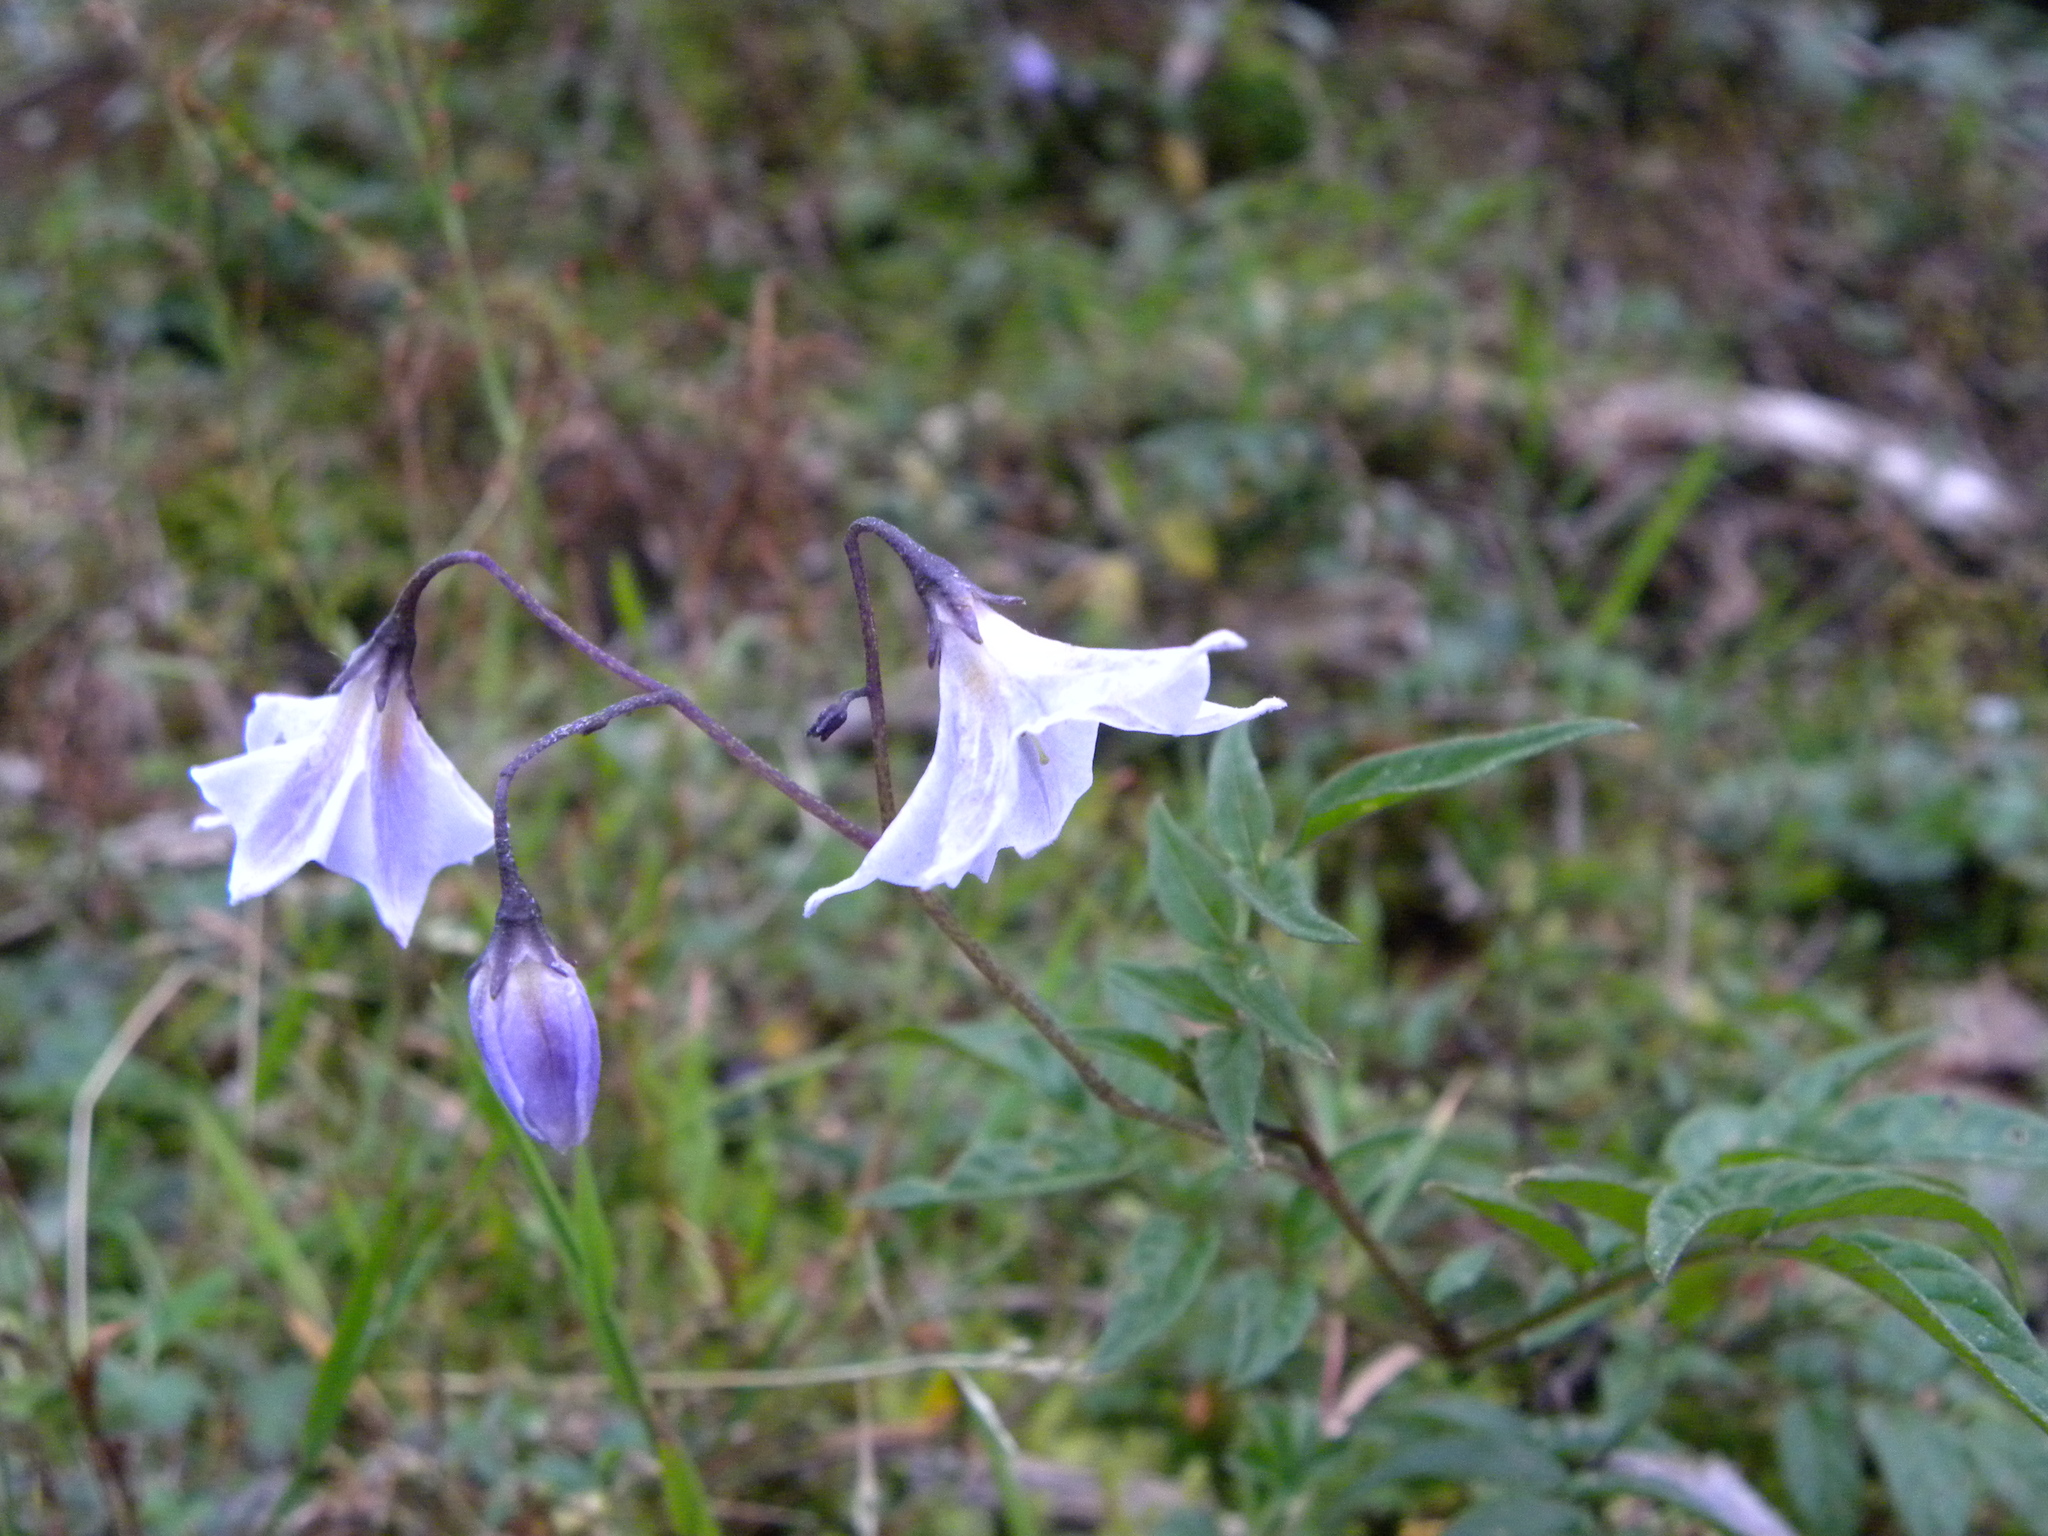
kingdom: Plantae
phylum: Tracheophyta
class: Magnoliopsida
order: Solanales
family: Solanaceae
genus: Solanum
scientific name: Solanum longiconicum
